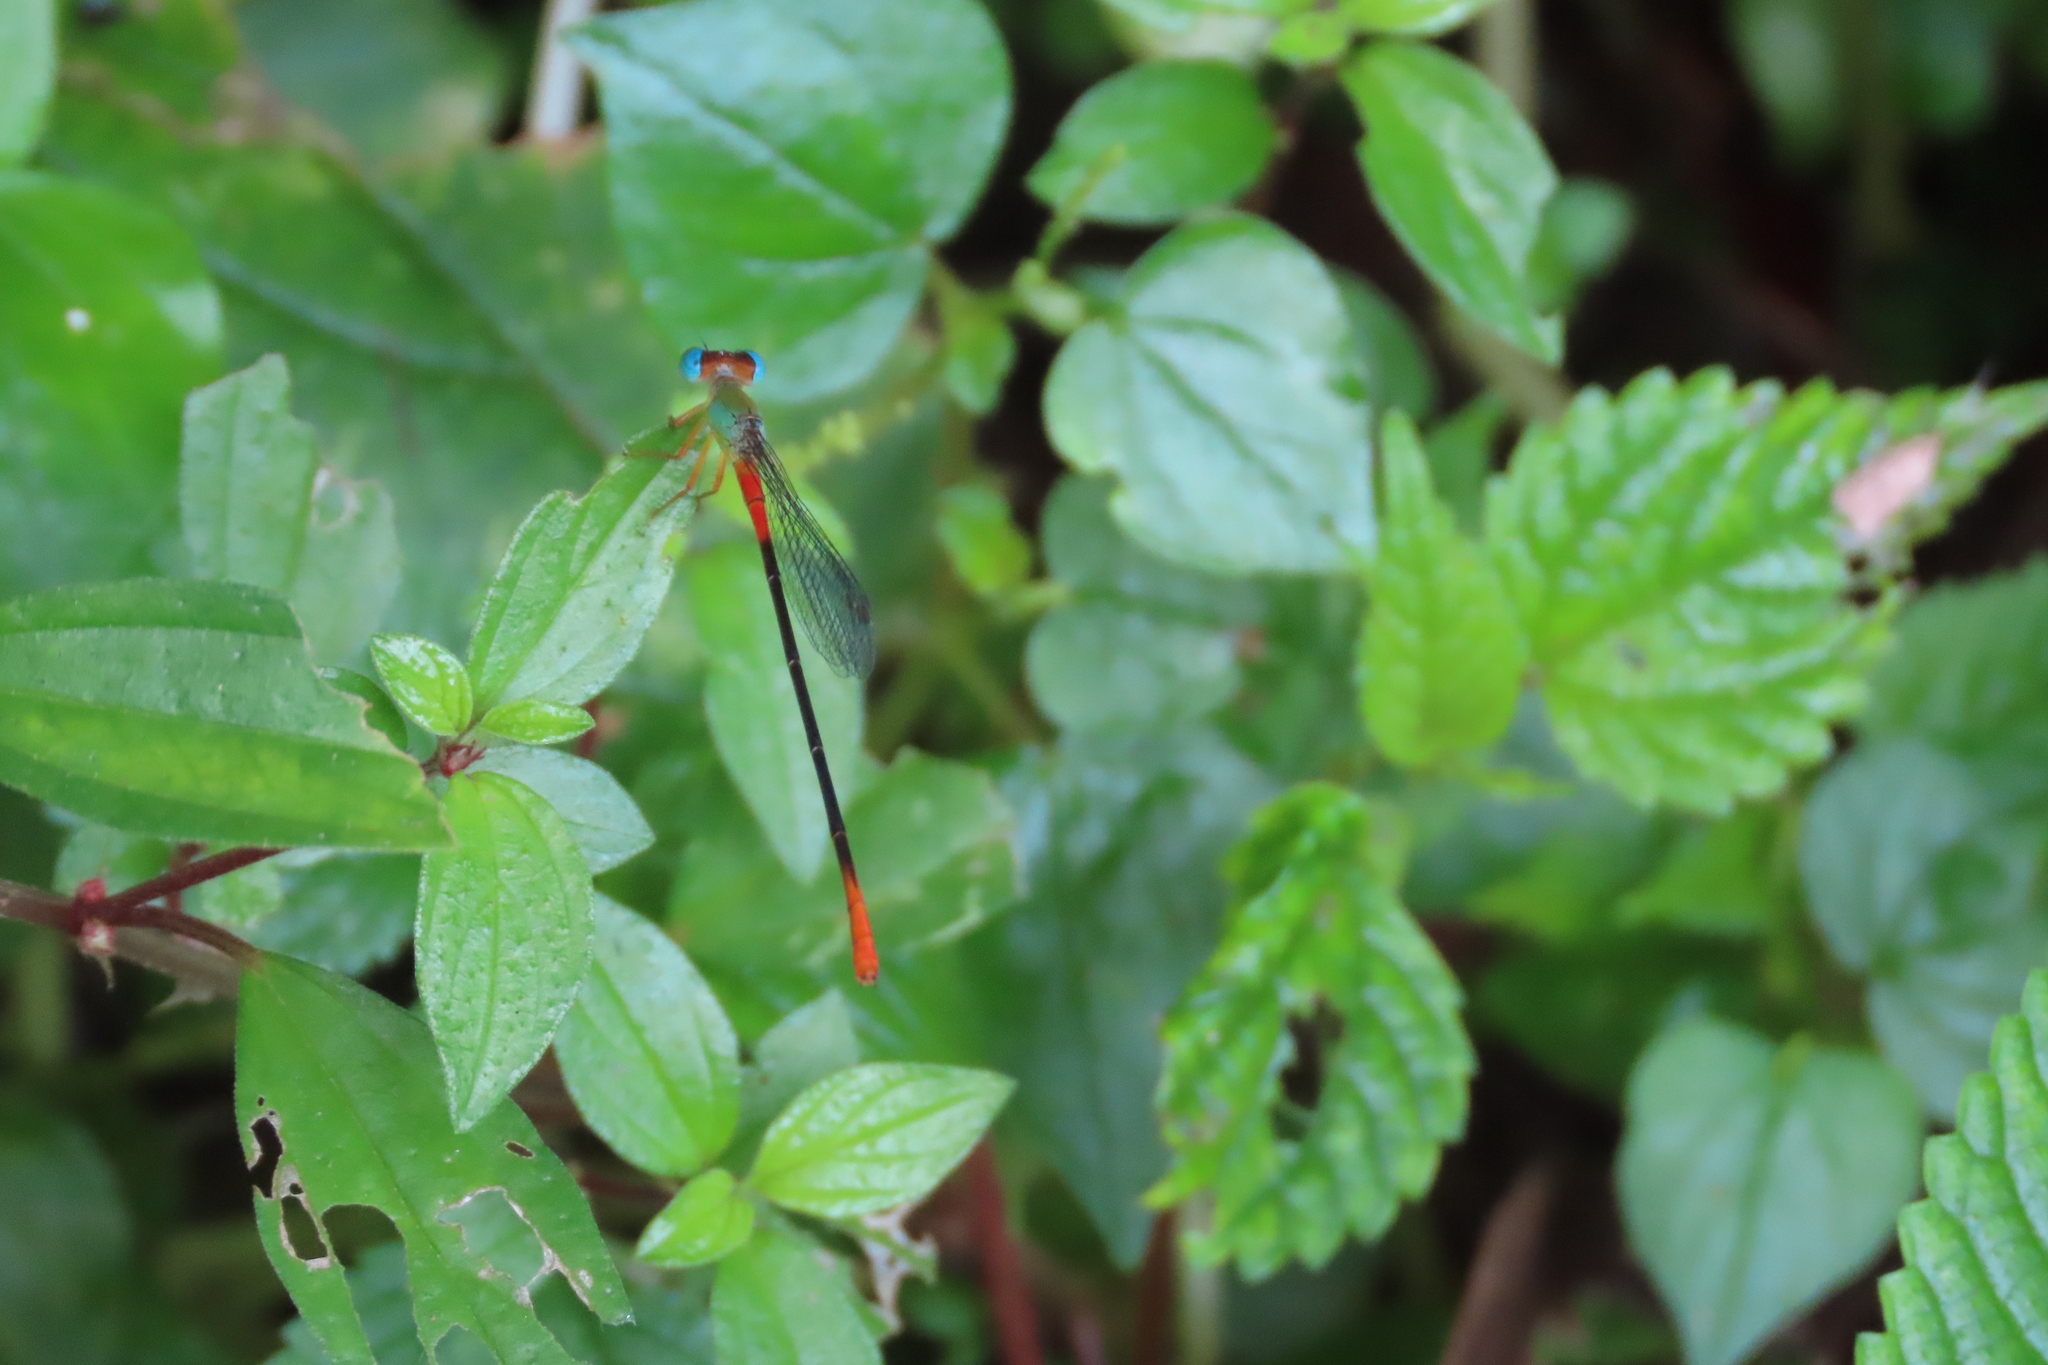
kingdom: Animalia
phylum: Arthropoda
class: Insecta
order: Odonata
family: Coenagrionidae
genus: Ceriagrion
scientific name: Ceriagrion cerinorubellum
